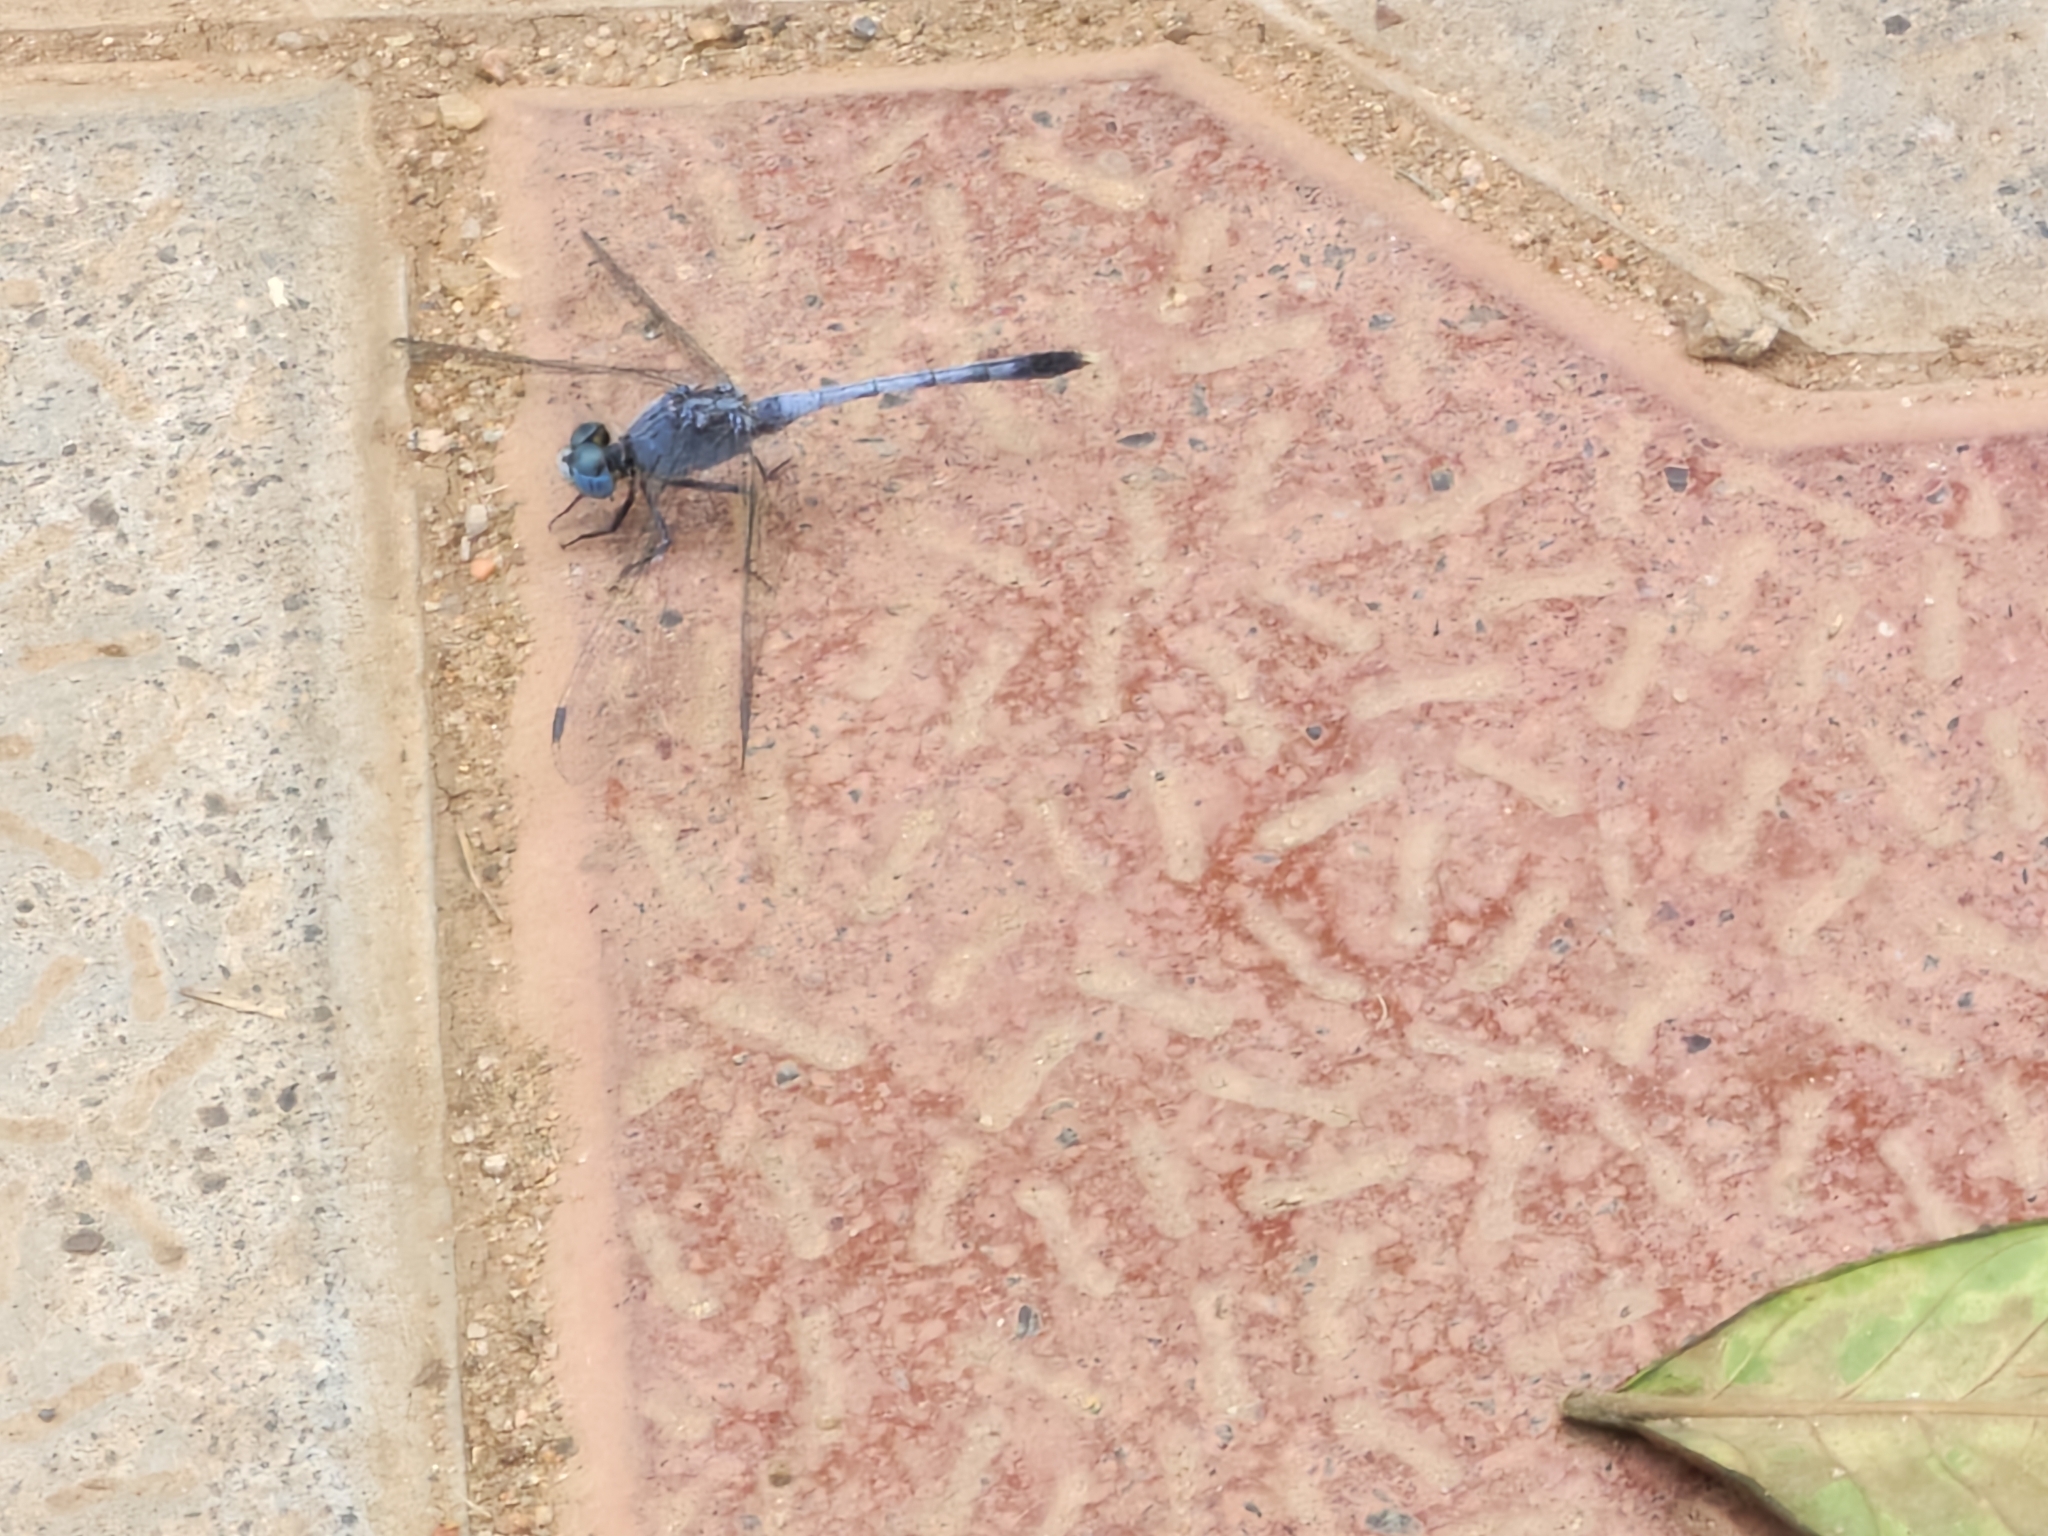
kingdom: Animalia
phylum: Arthropoda
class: Insecta
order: Odonata
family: Libellulidae
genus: Diplacodes
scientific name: Diplacodes trivialis
